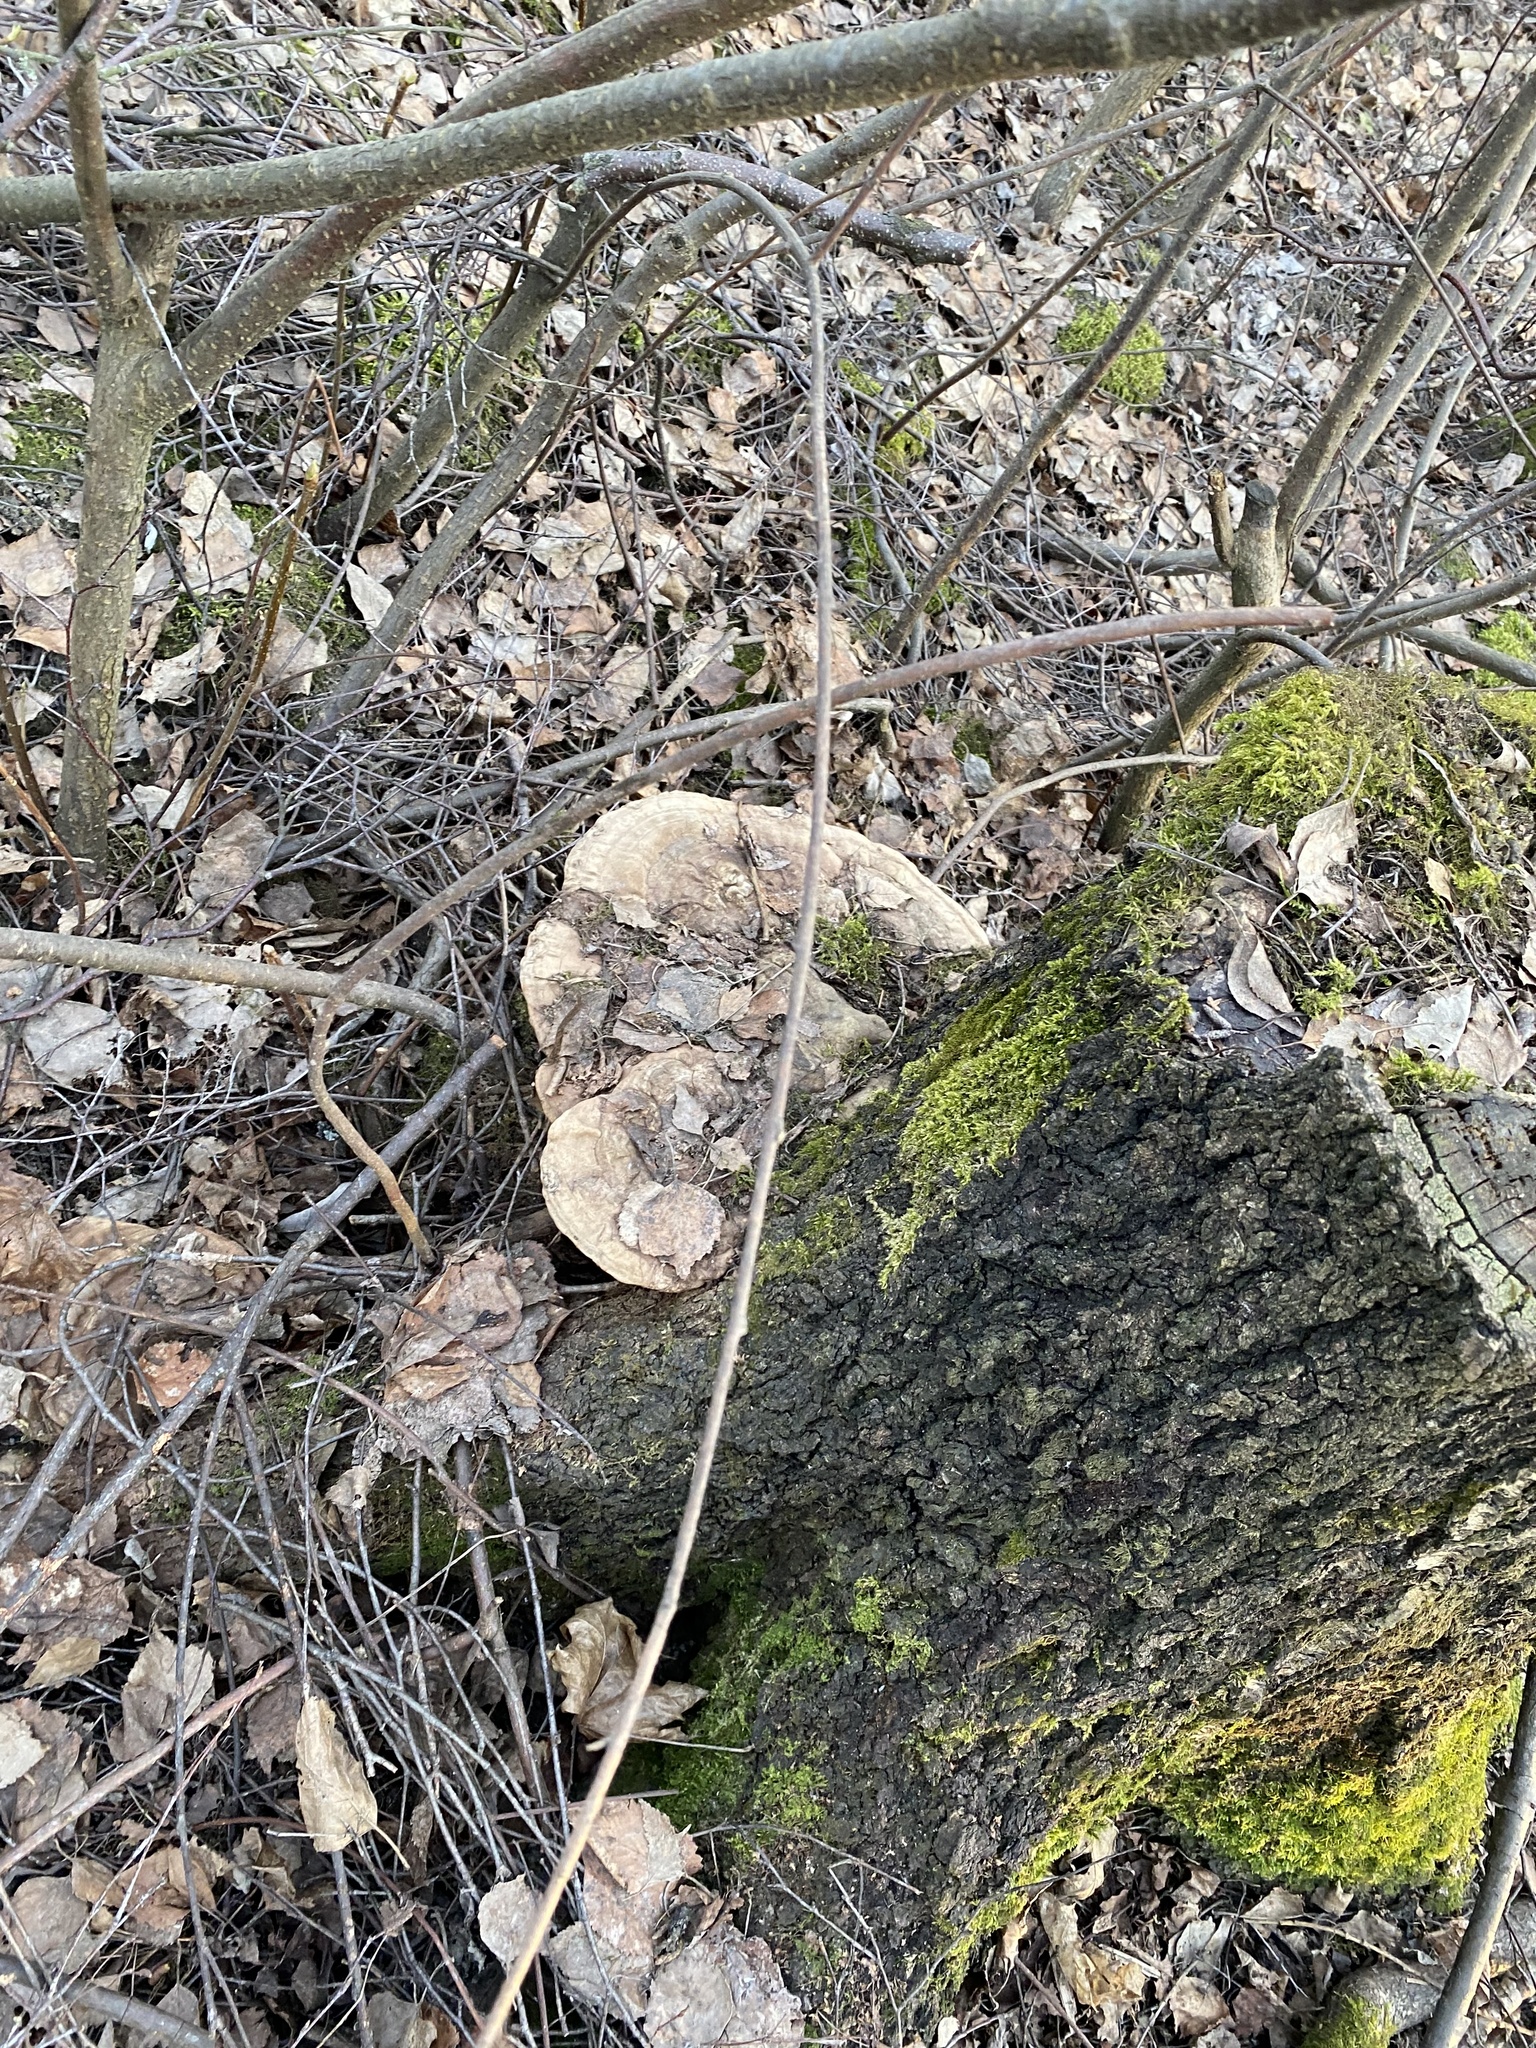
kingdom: Fungi
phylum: Basidiomycota
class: Agaricomycetes
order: Polyporales
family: Polyporaceae
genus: Ganoderma
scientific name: Ganoderma applanatum
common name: Artist's bracket
